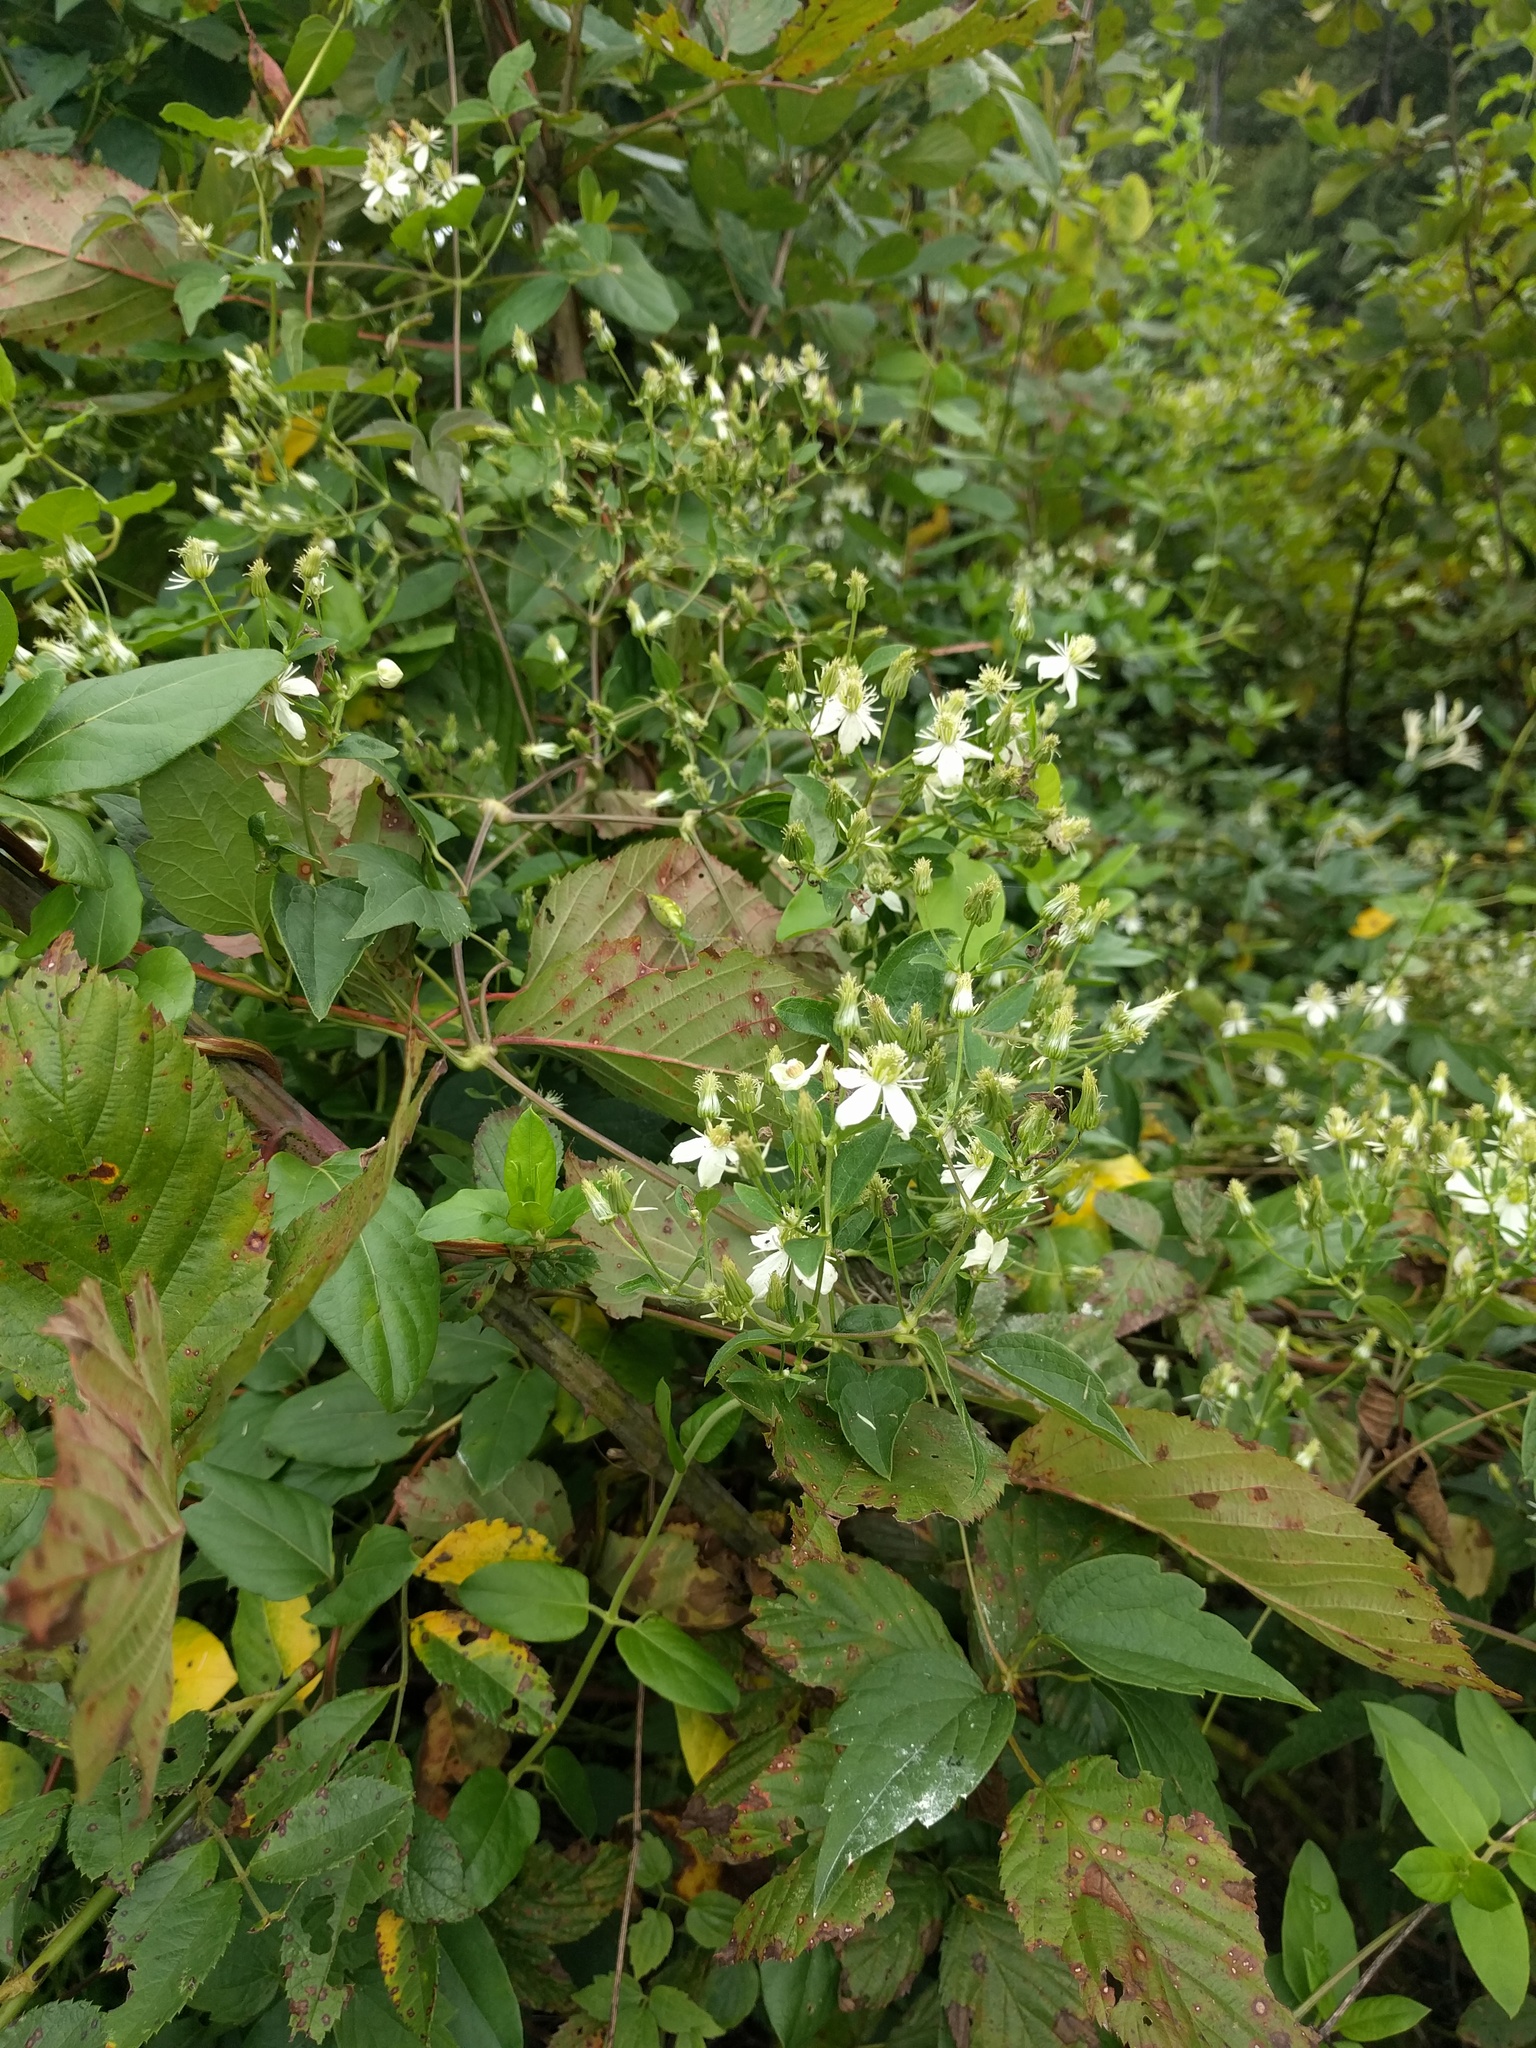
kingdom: Plantae
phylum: Tracheophyta
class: Magnoliopsida
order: Ranunculales
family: Ranunculaceae
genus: Clematis
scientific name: Clematis virginiana
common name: Virgin's-bower
